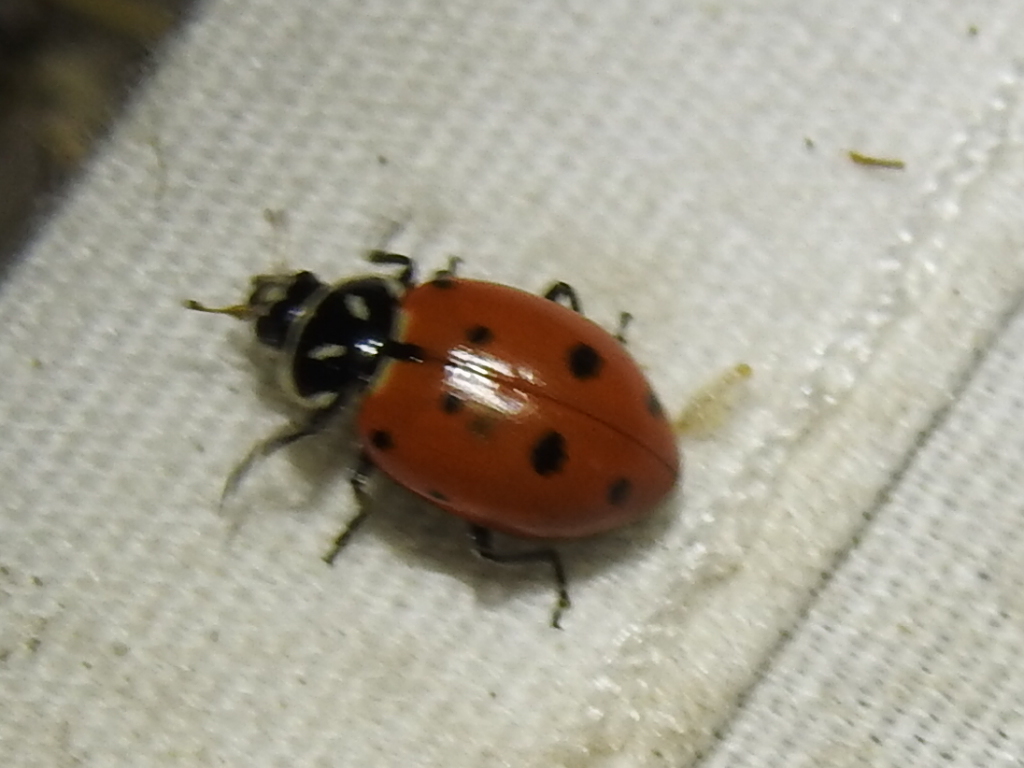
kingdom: Animalia
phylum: Arthropoda
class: Insecta
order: Coleoptera
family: Coccinellidae
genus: Hippodamia
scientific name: Hippodamia convergens
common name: Convergent lady beetle
